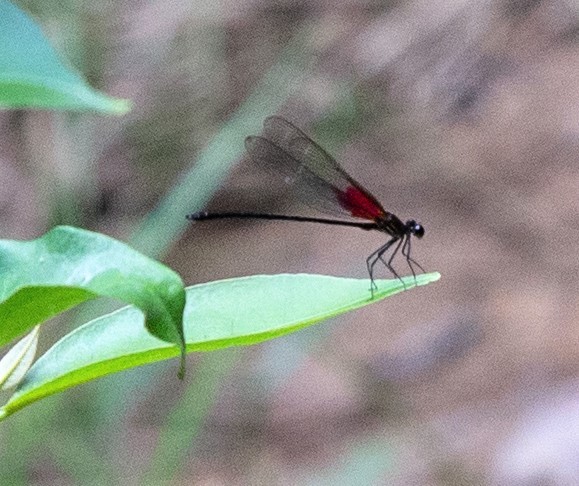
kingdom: Animalia
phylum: Arthropoda
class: Insecta
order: Odonata
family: Calopterygidae
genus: Hetaerina
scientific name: Hetaerina moribunda
